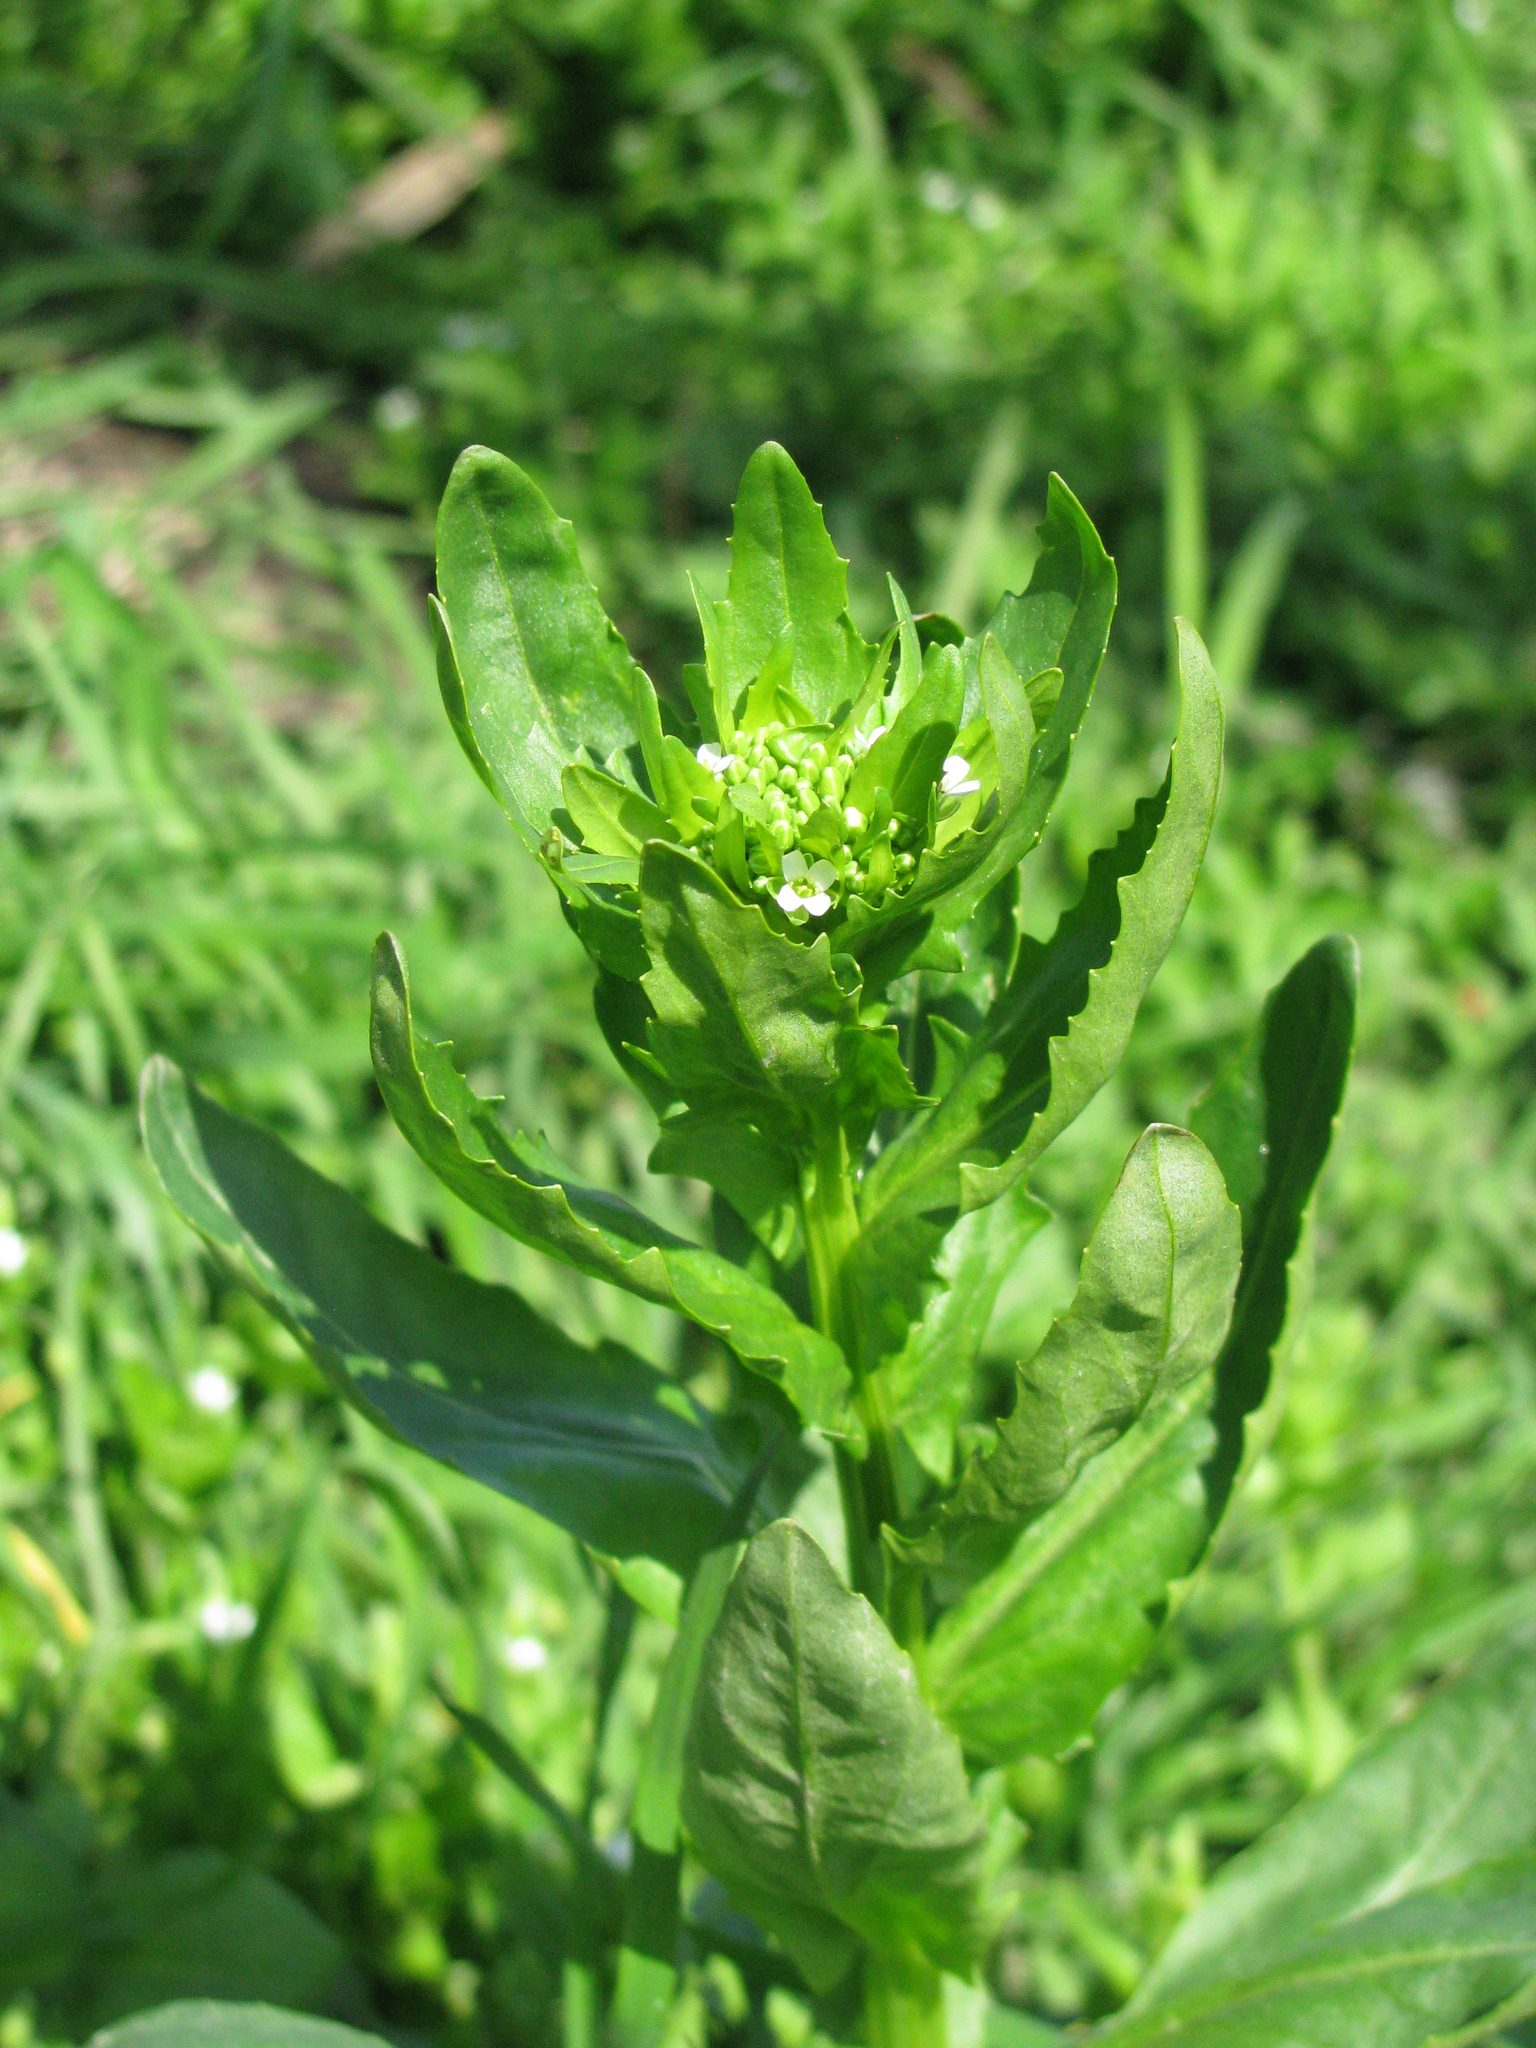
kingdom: Plantae
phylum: Tracheophyta
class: Magnoliopsida
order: Brassicales
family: Brassicaceae
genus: Thlaspi
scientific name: Thlaspi arvense
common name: Field pennycress
